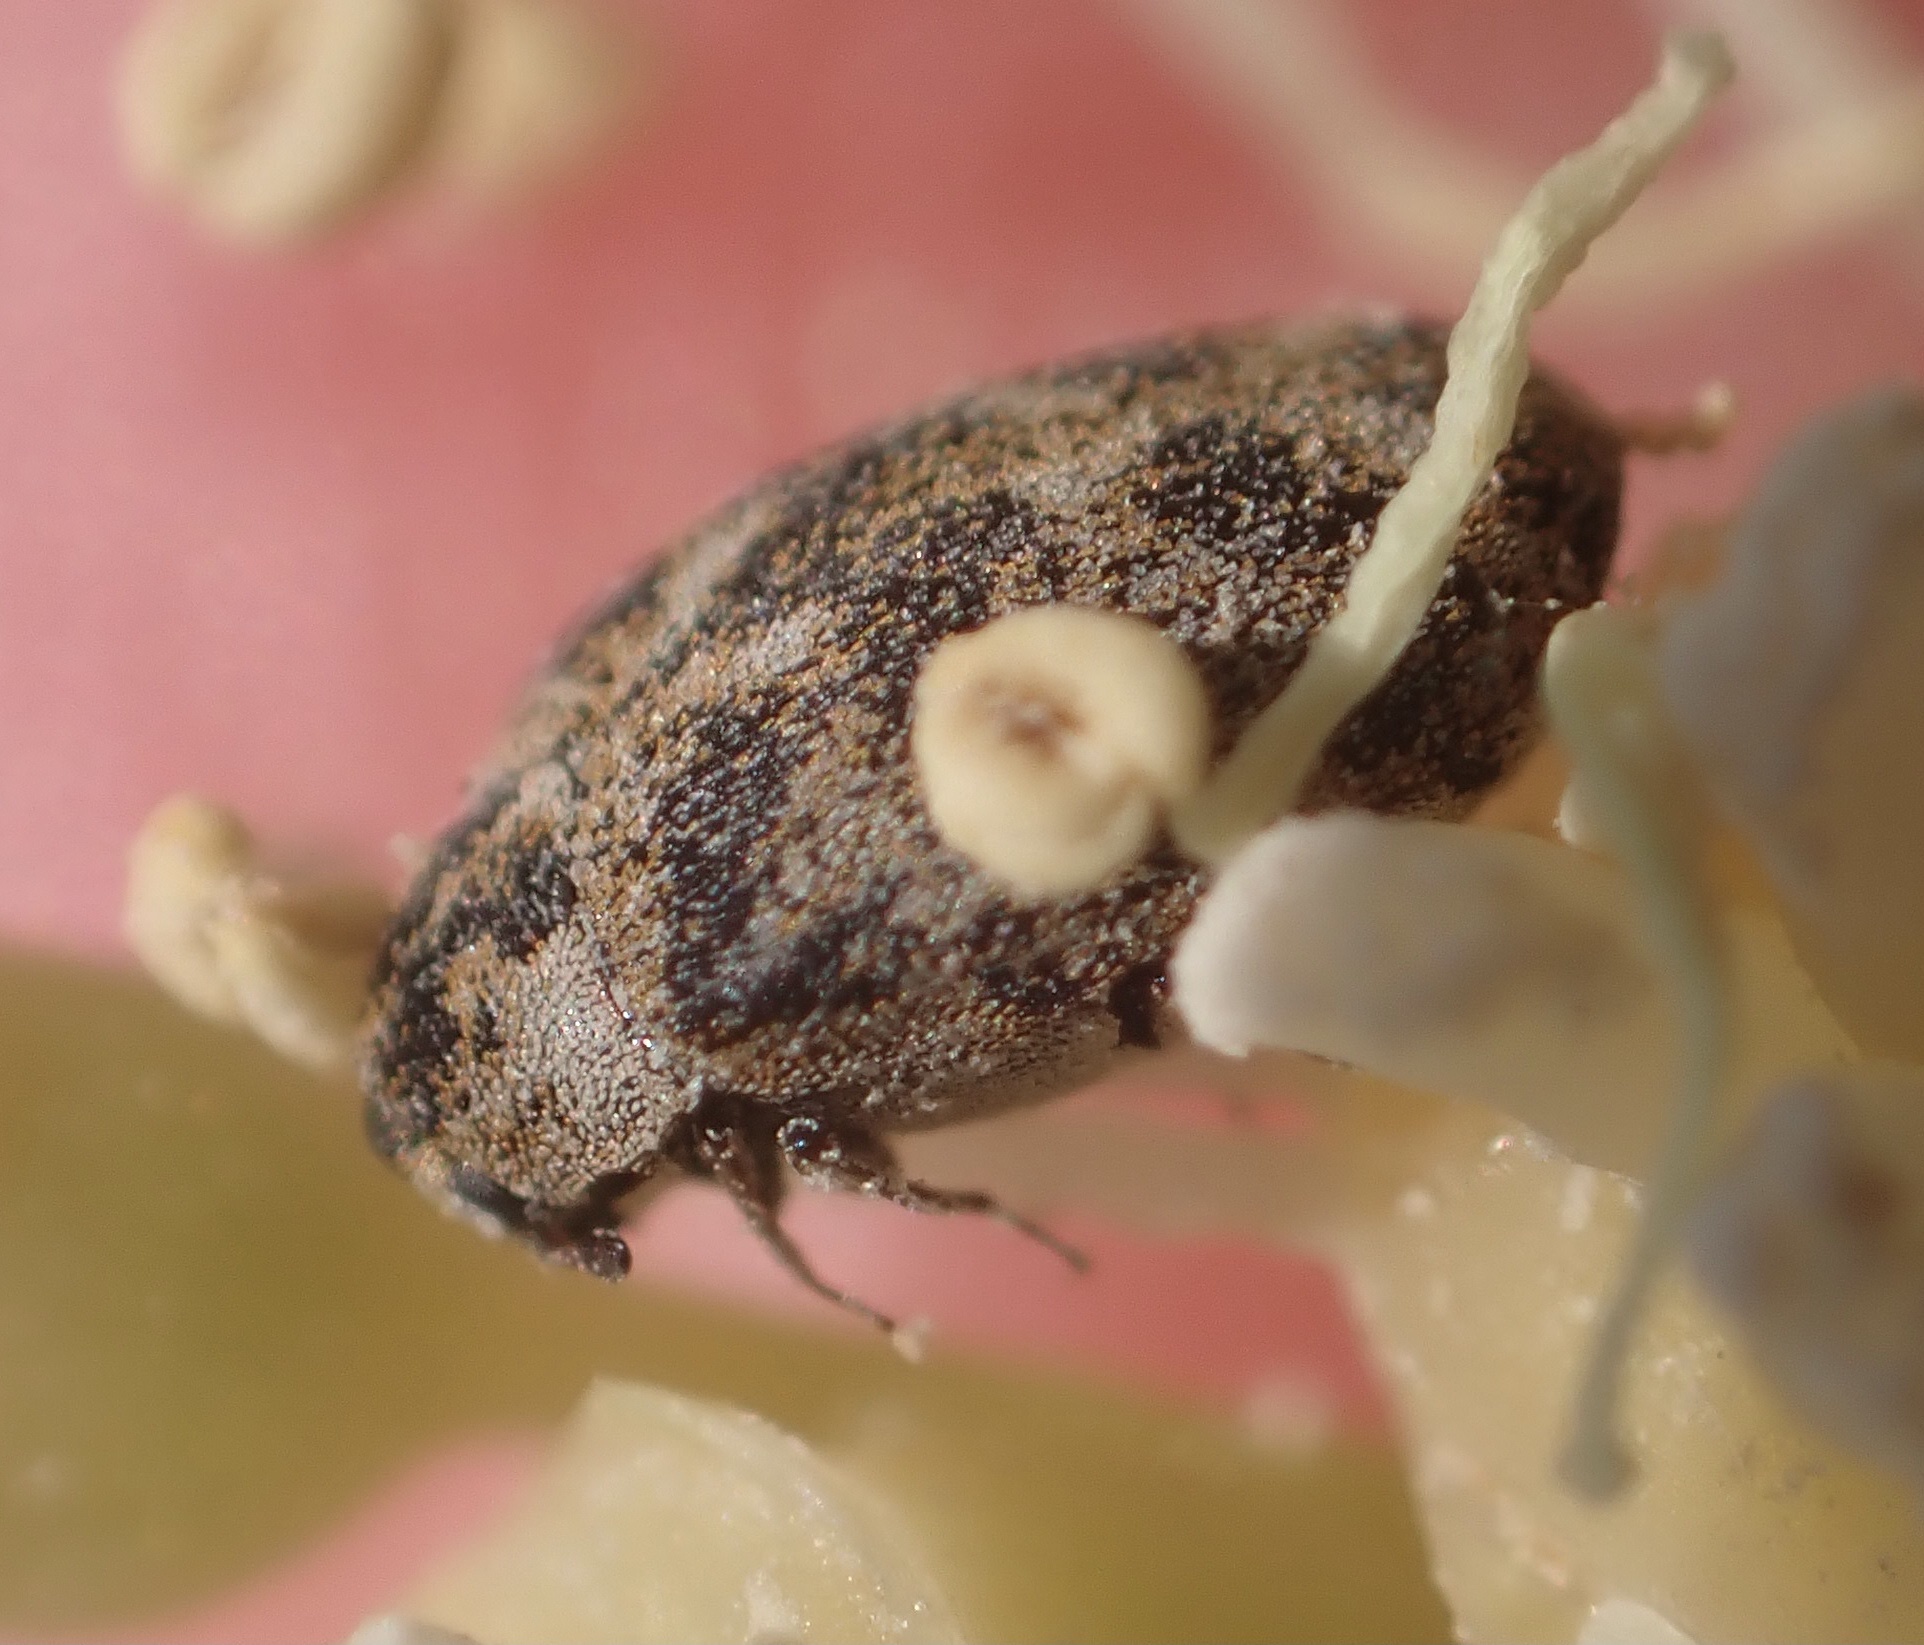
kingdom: Animalia
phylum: Arthropoda
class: Insecta
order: Coleoptera
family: Dermestidae
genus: Anthrenus
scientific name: Anthrenus verbasci
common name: Varied carpet beetle
